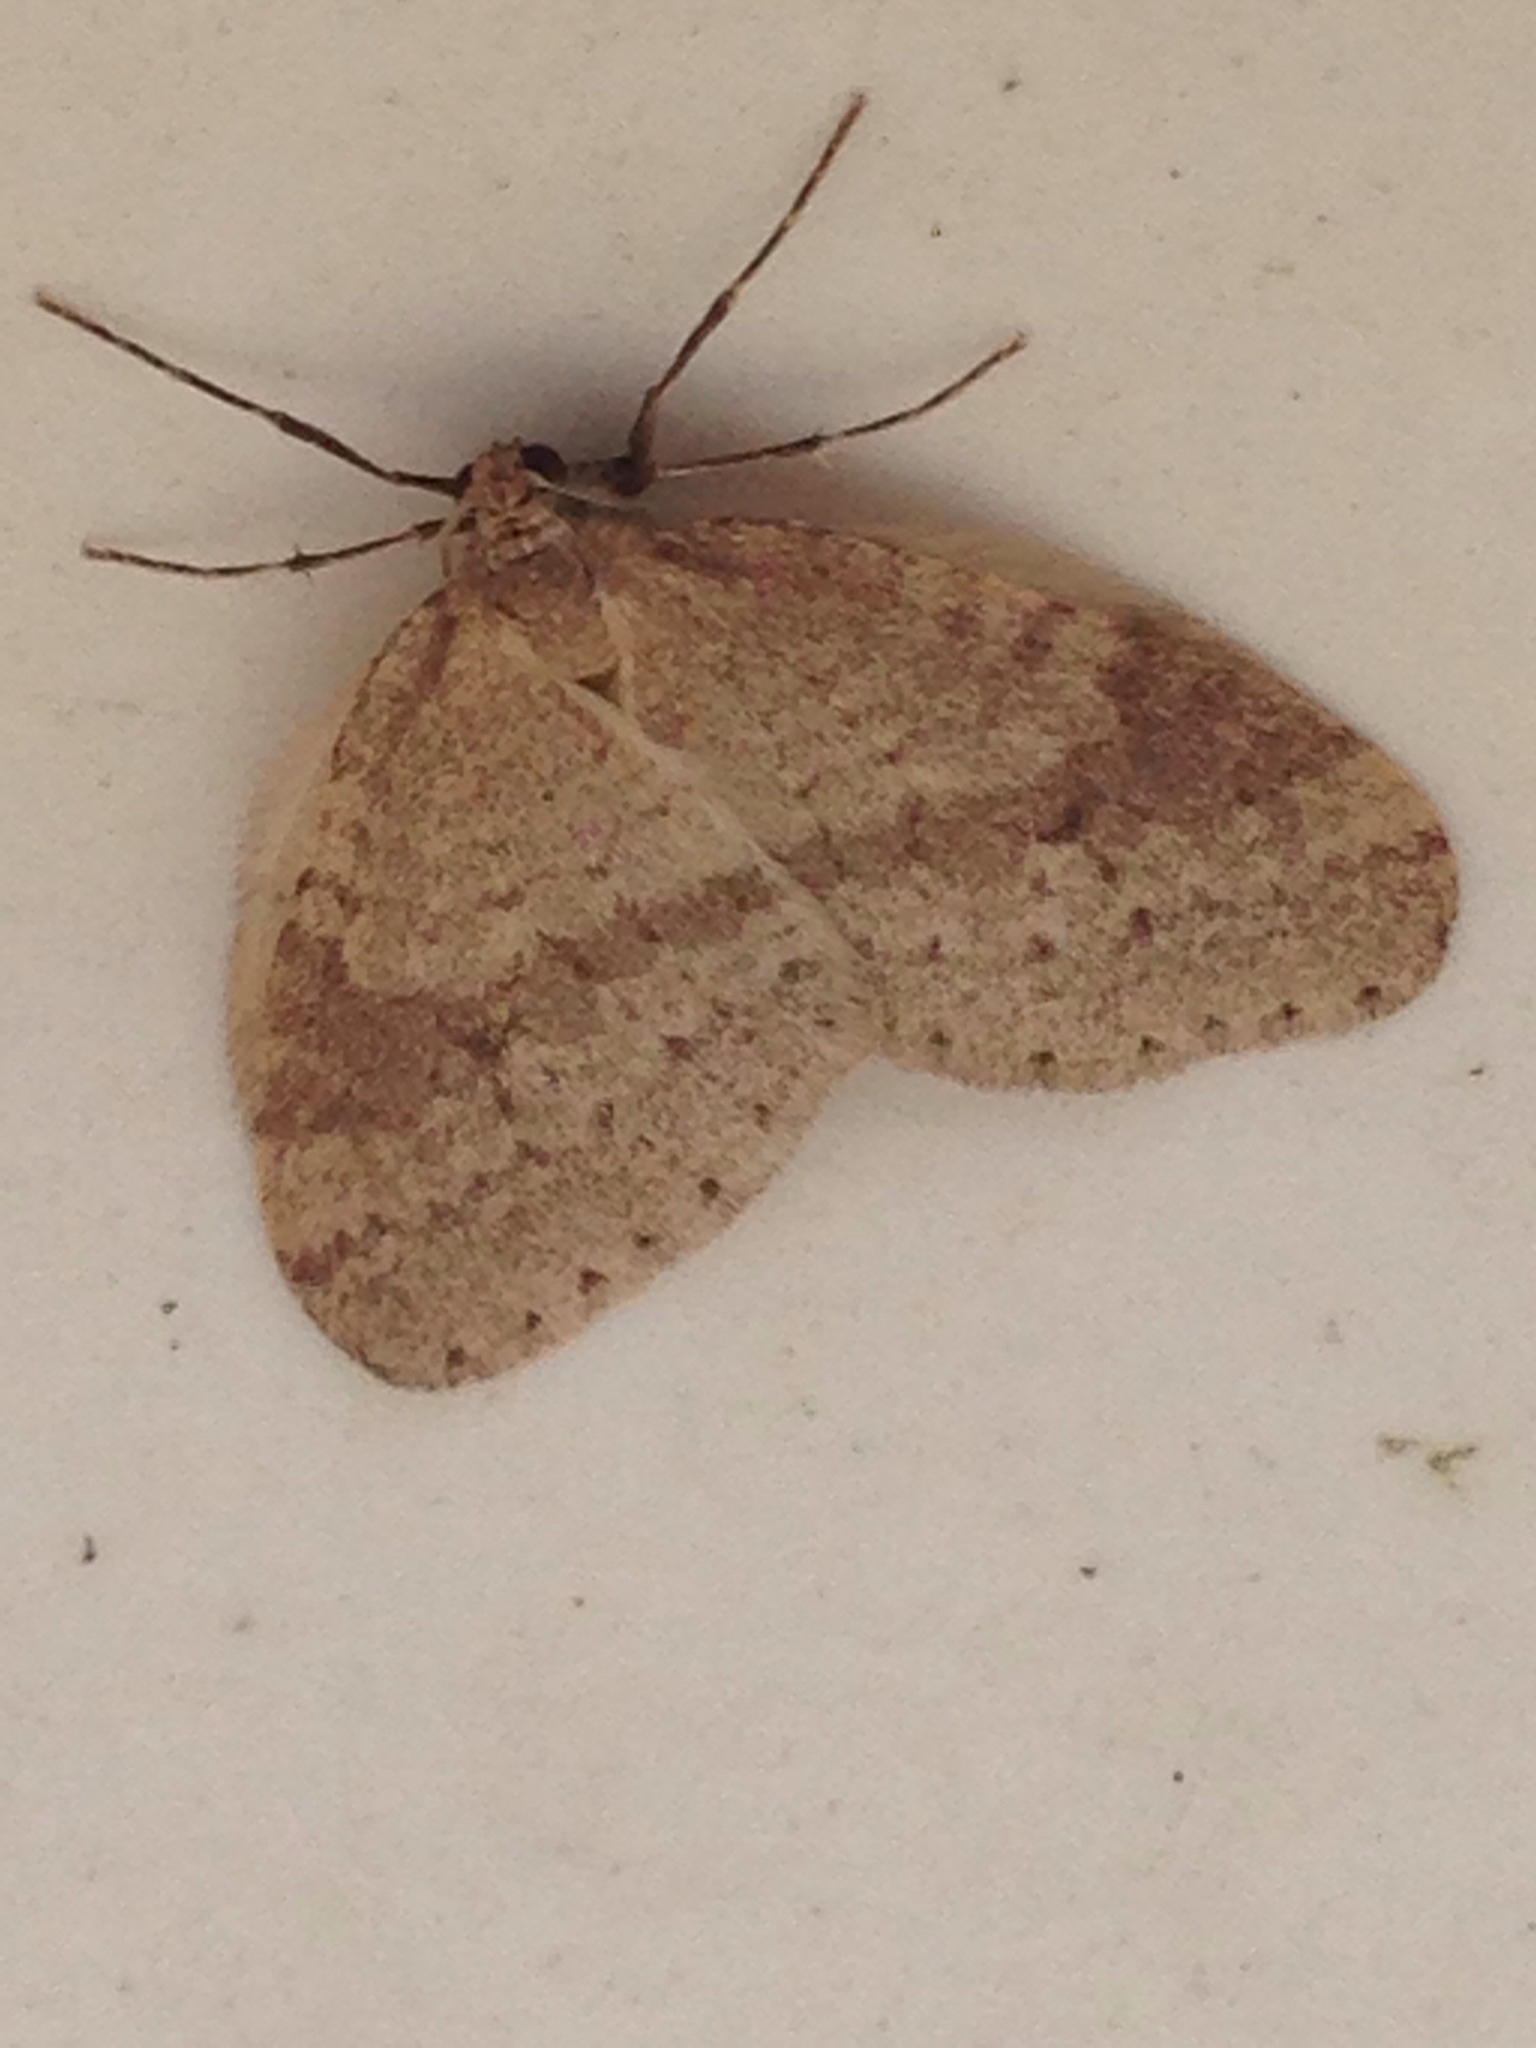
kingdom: Animalia
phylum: Arthropoda
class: Insecta
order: Lepidoptera
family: Geometridae
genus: Operophtera
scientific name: Operophtera bruceata
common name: Bruce spanworm
